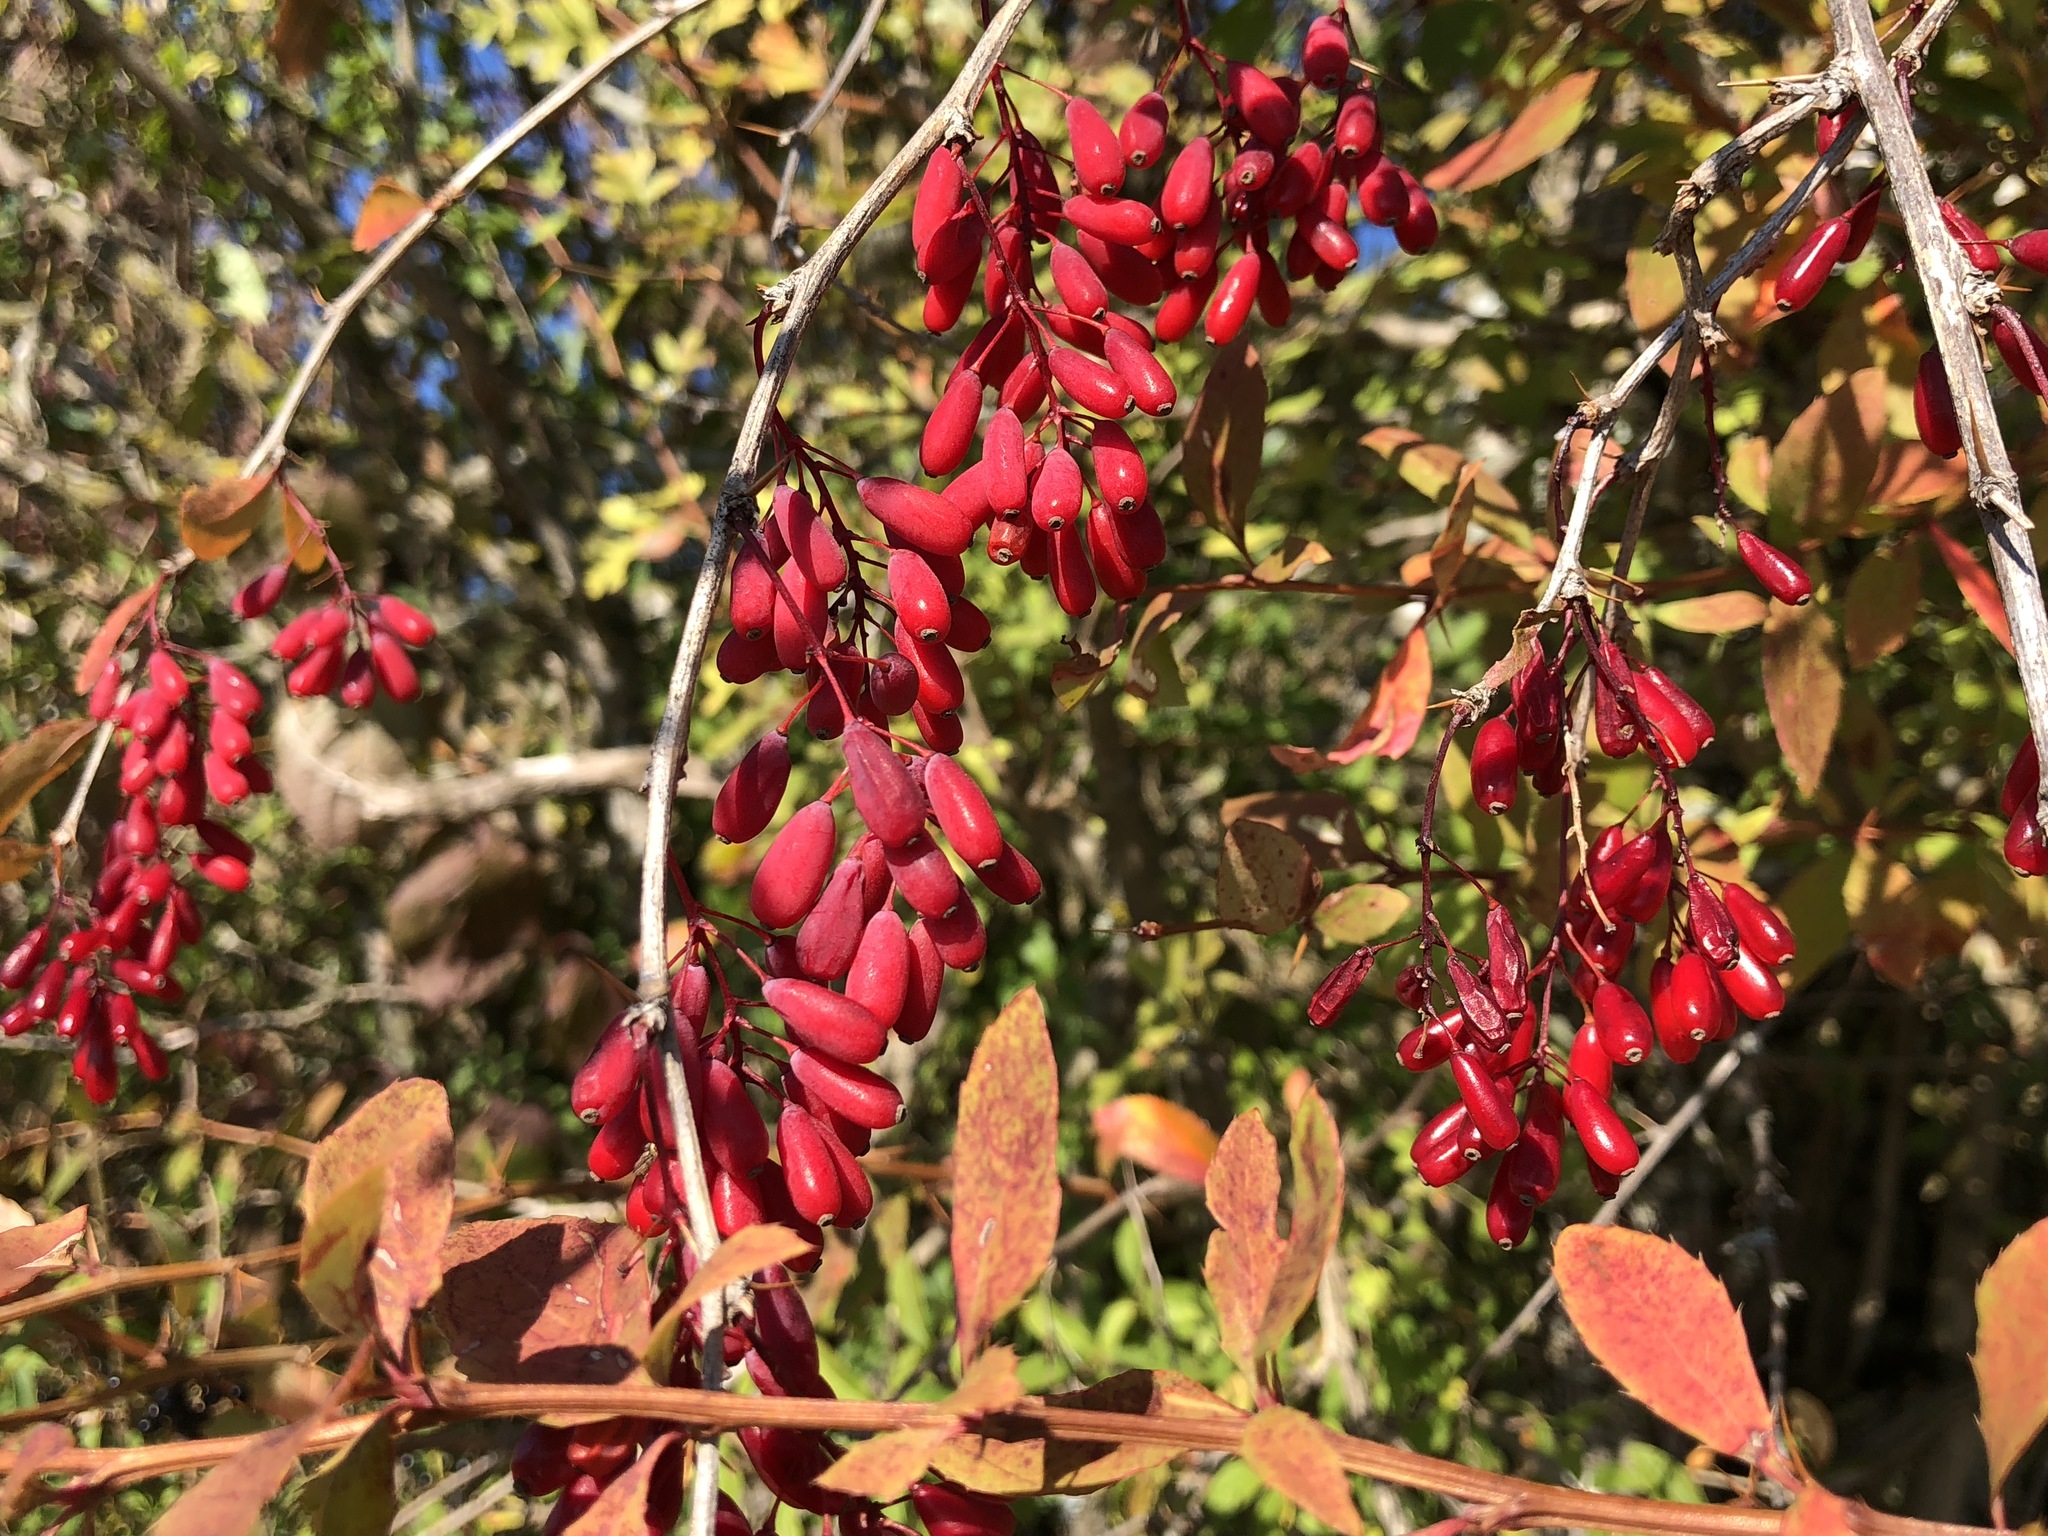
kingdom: Plantae
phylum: Tracheophyta
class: Magnoliopsida
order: Ranunculales
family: Berberidaceae
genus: Berberis
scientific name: Berberis vulgaris
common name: Barberry
